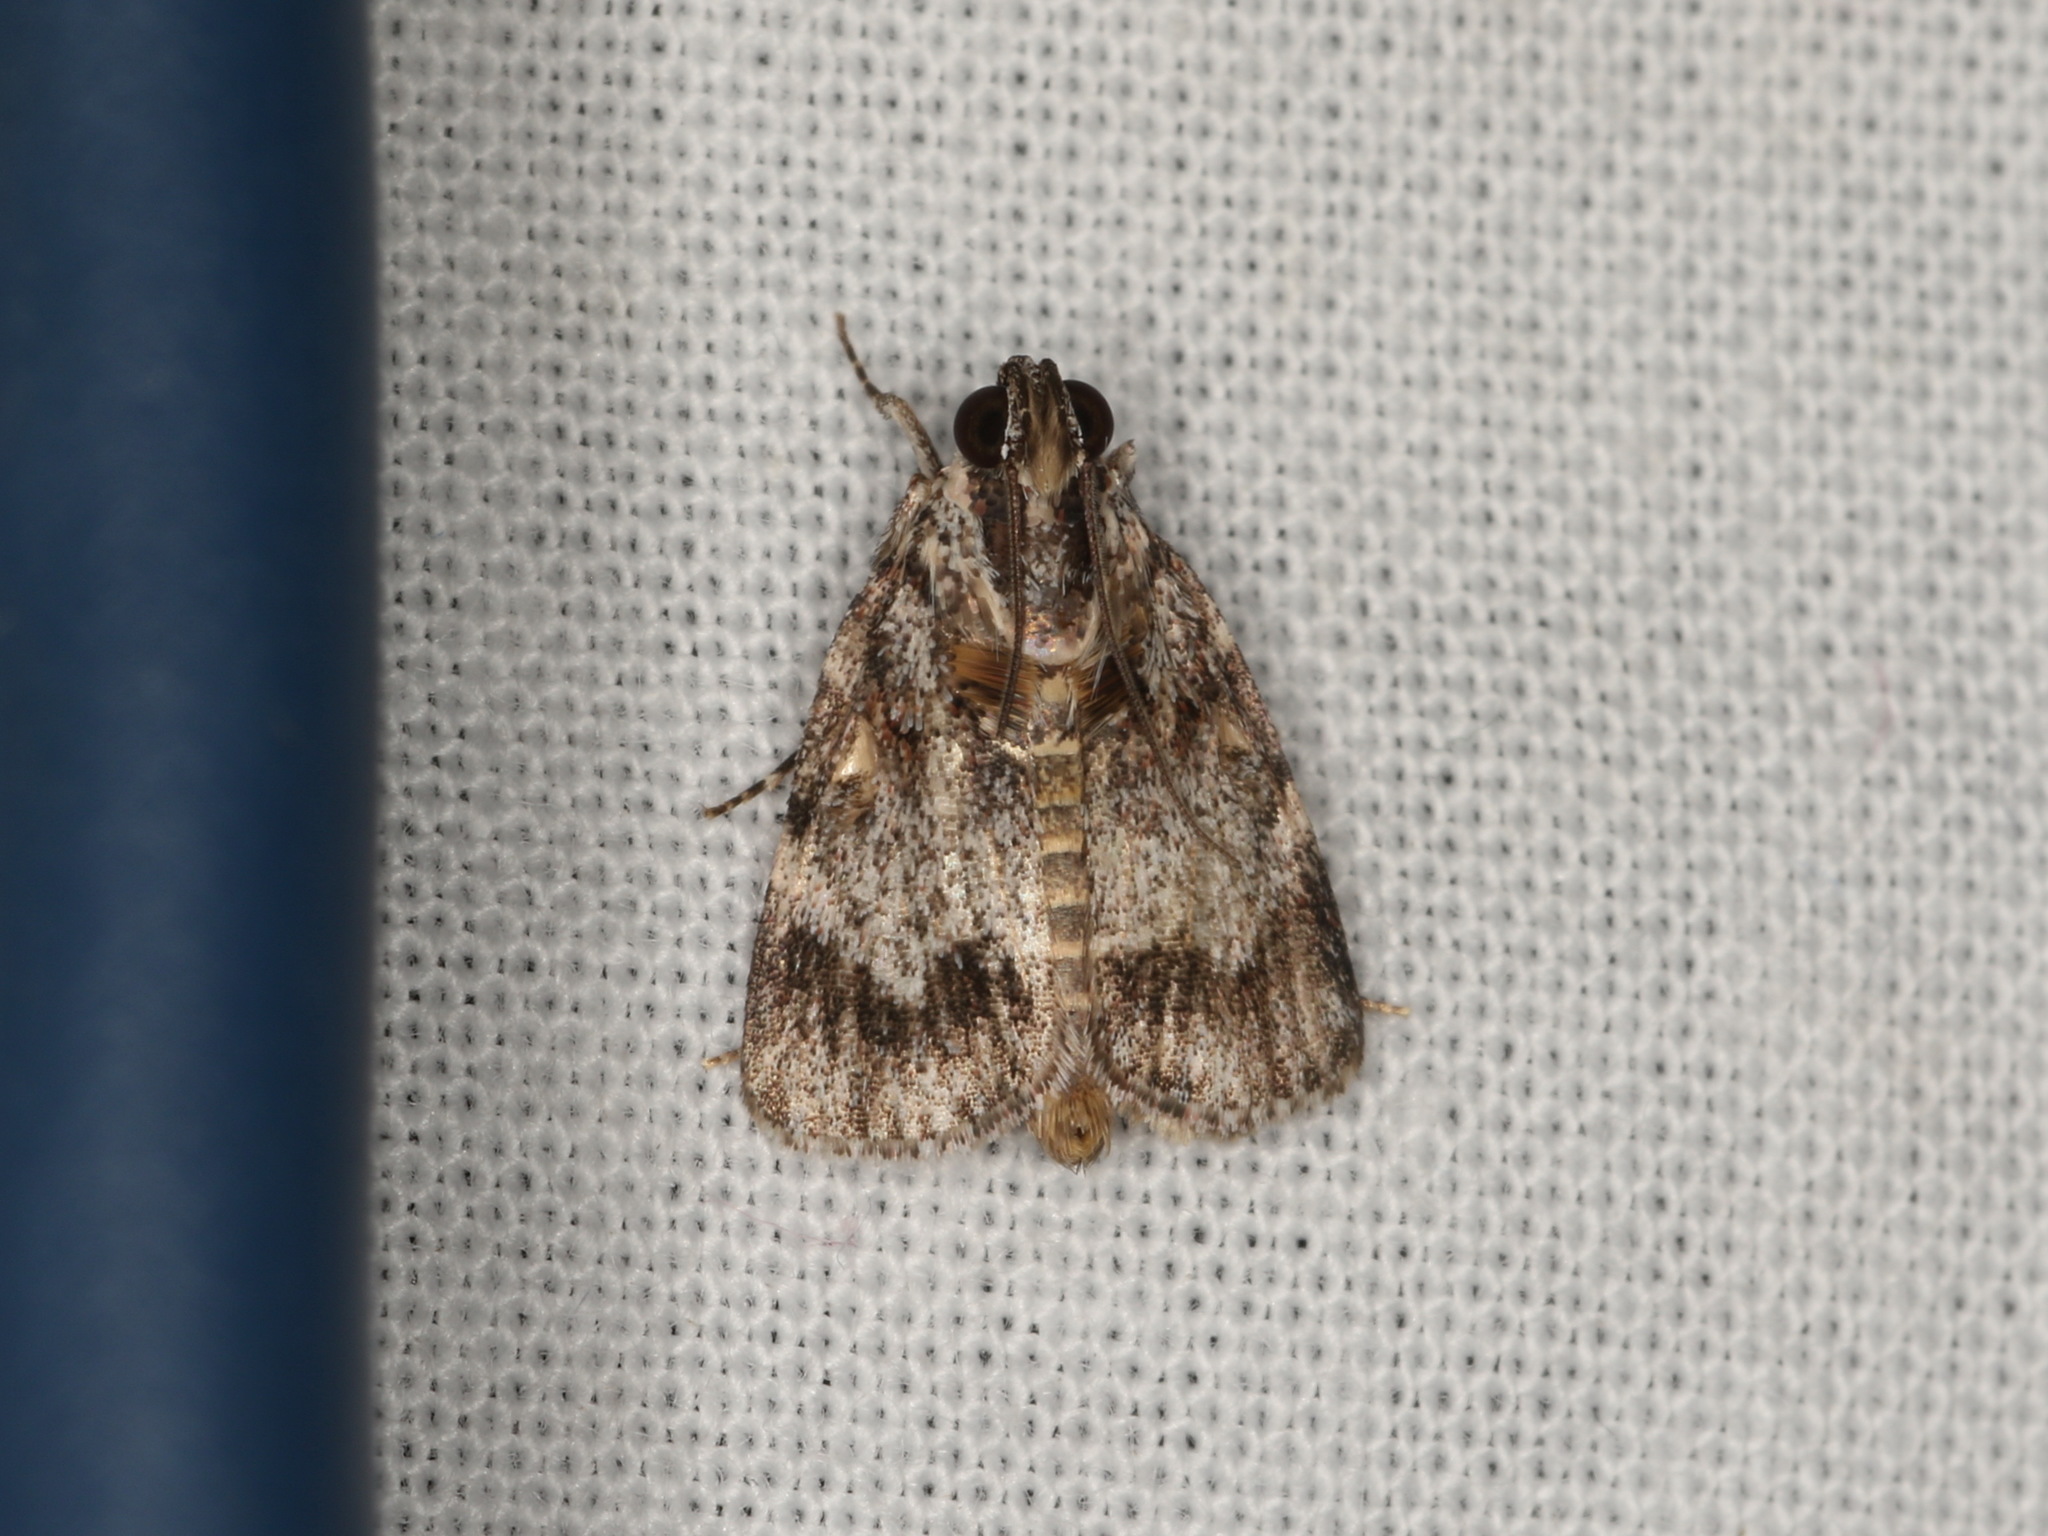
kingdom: Animalia
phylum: Arthropoda
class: Insecta
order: Lepidoptera
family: Pyralidae
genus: Spectrotrota
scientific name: Spectrotrota fimbrialis
